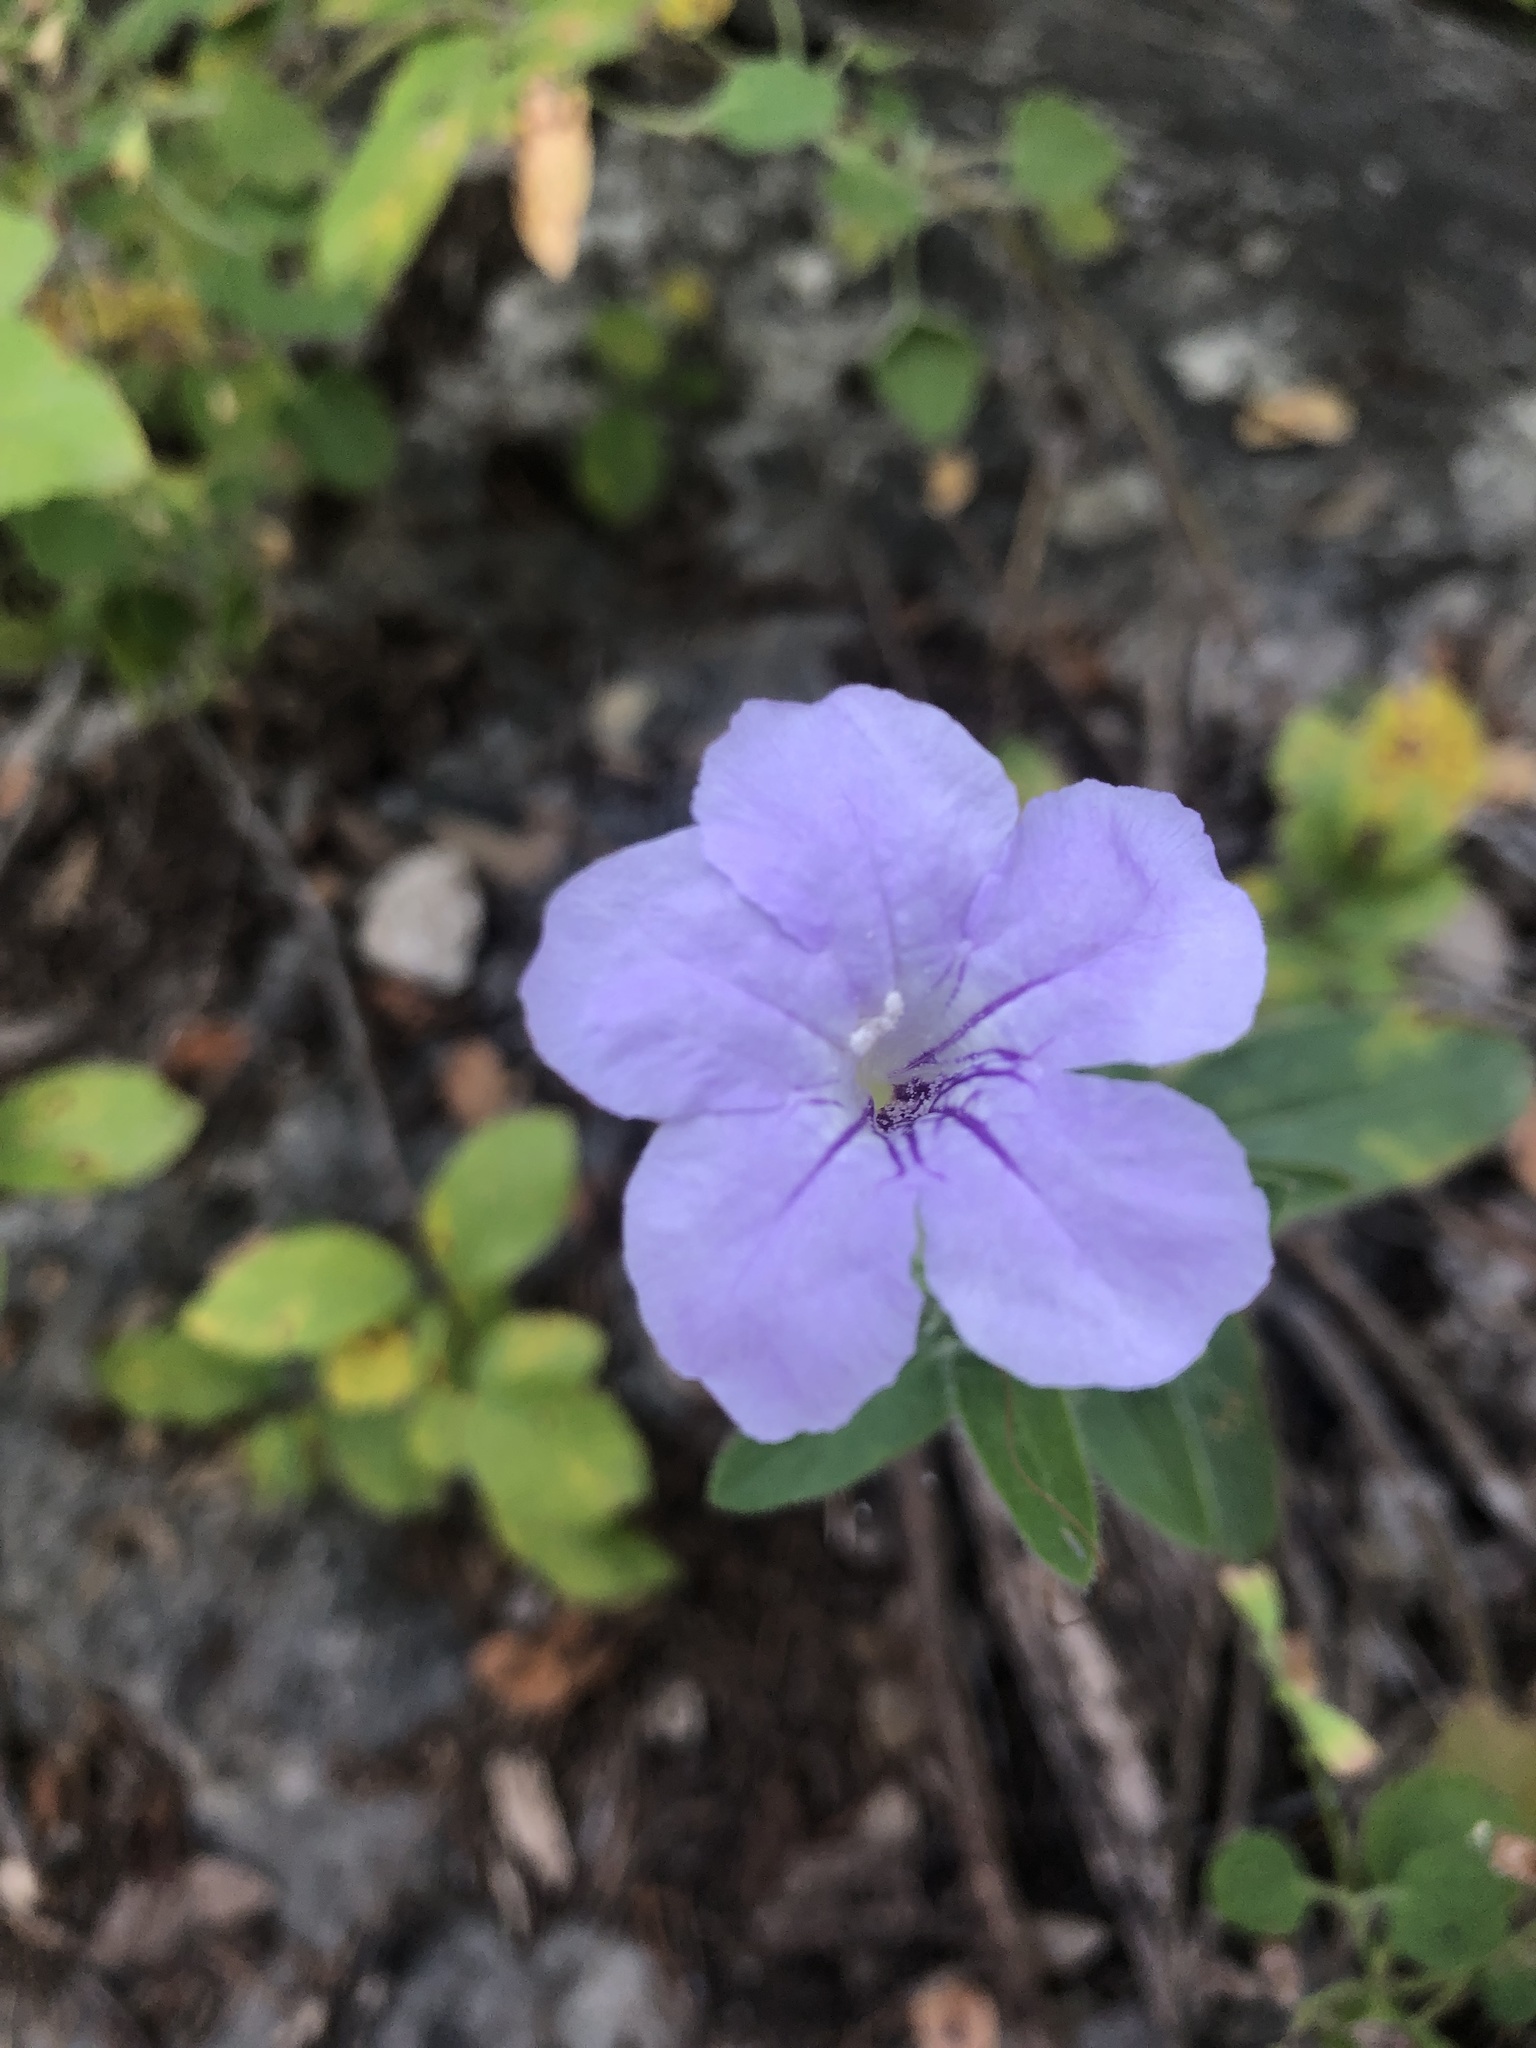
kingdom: Plantae
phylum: Tracheophyta
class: Magnoliopsida
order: Lamiales
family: Acanthaceae
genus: Ruellia
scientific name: Ruellia humilis
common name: Fringe-leaf ruellia
